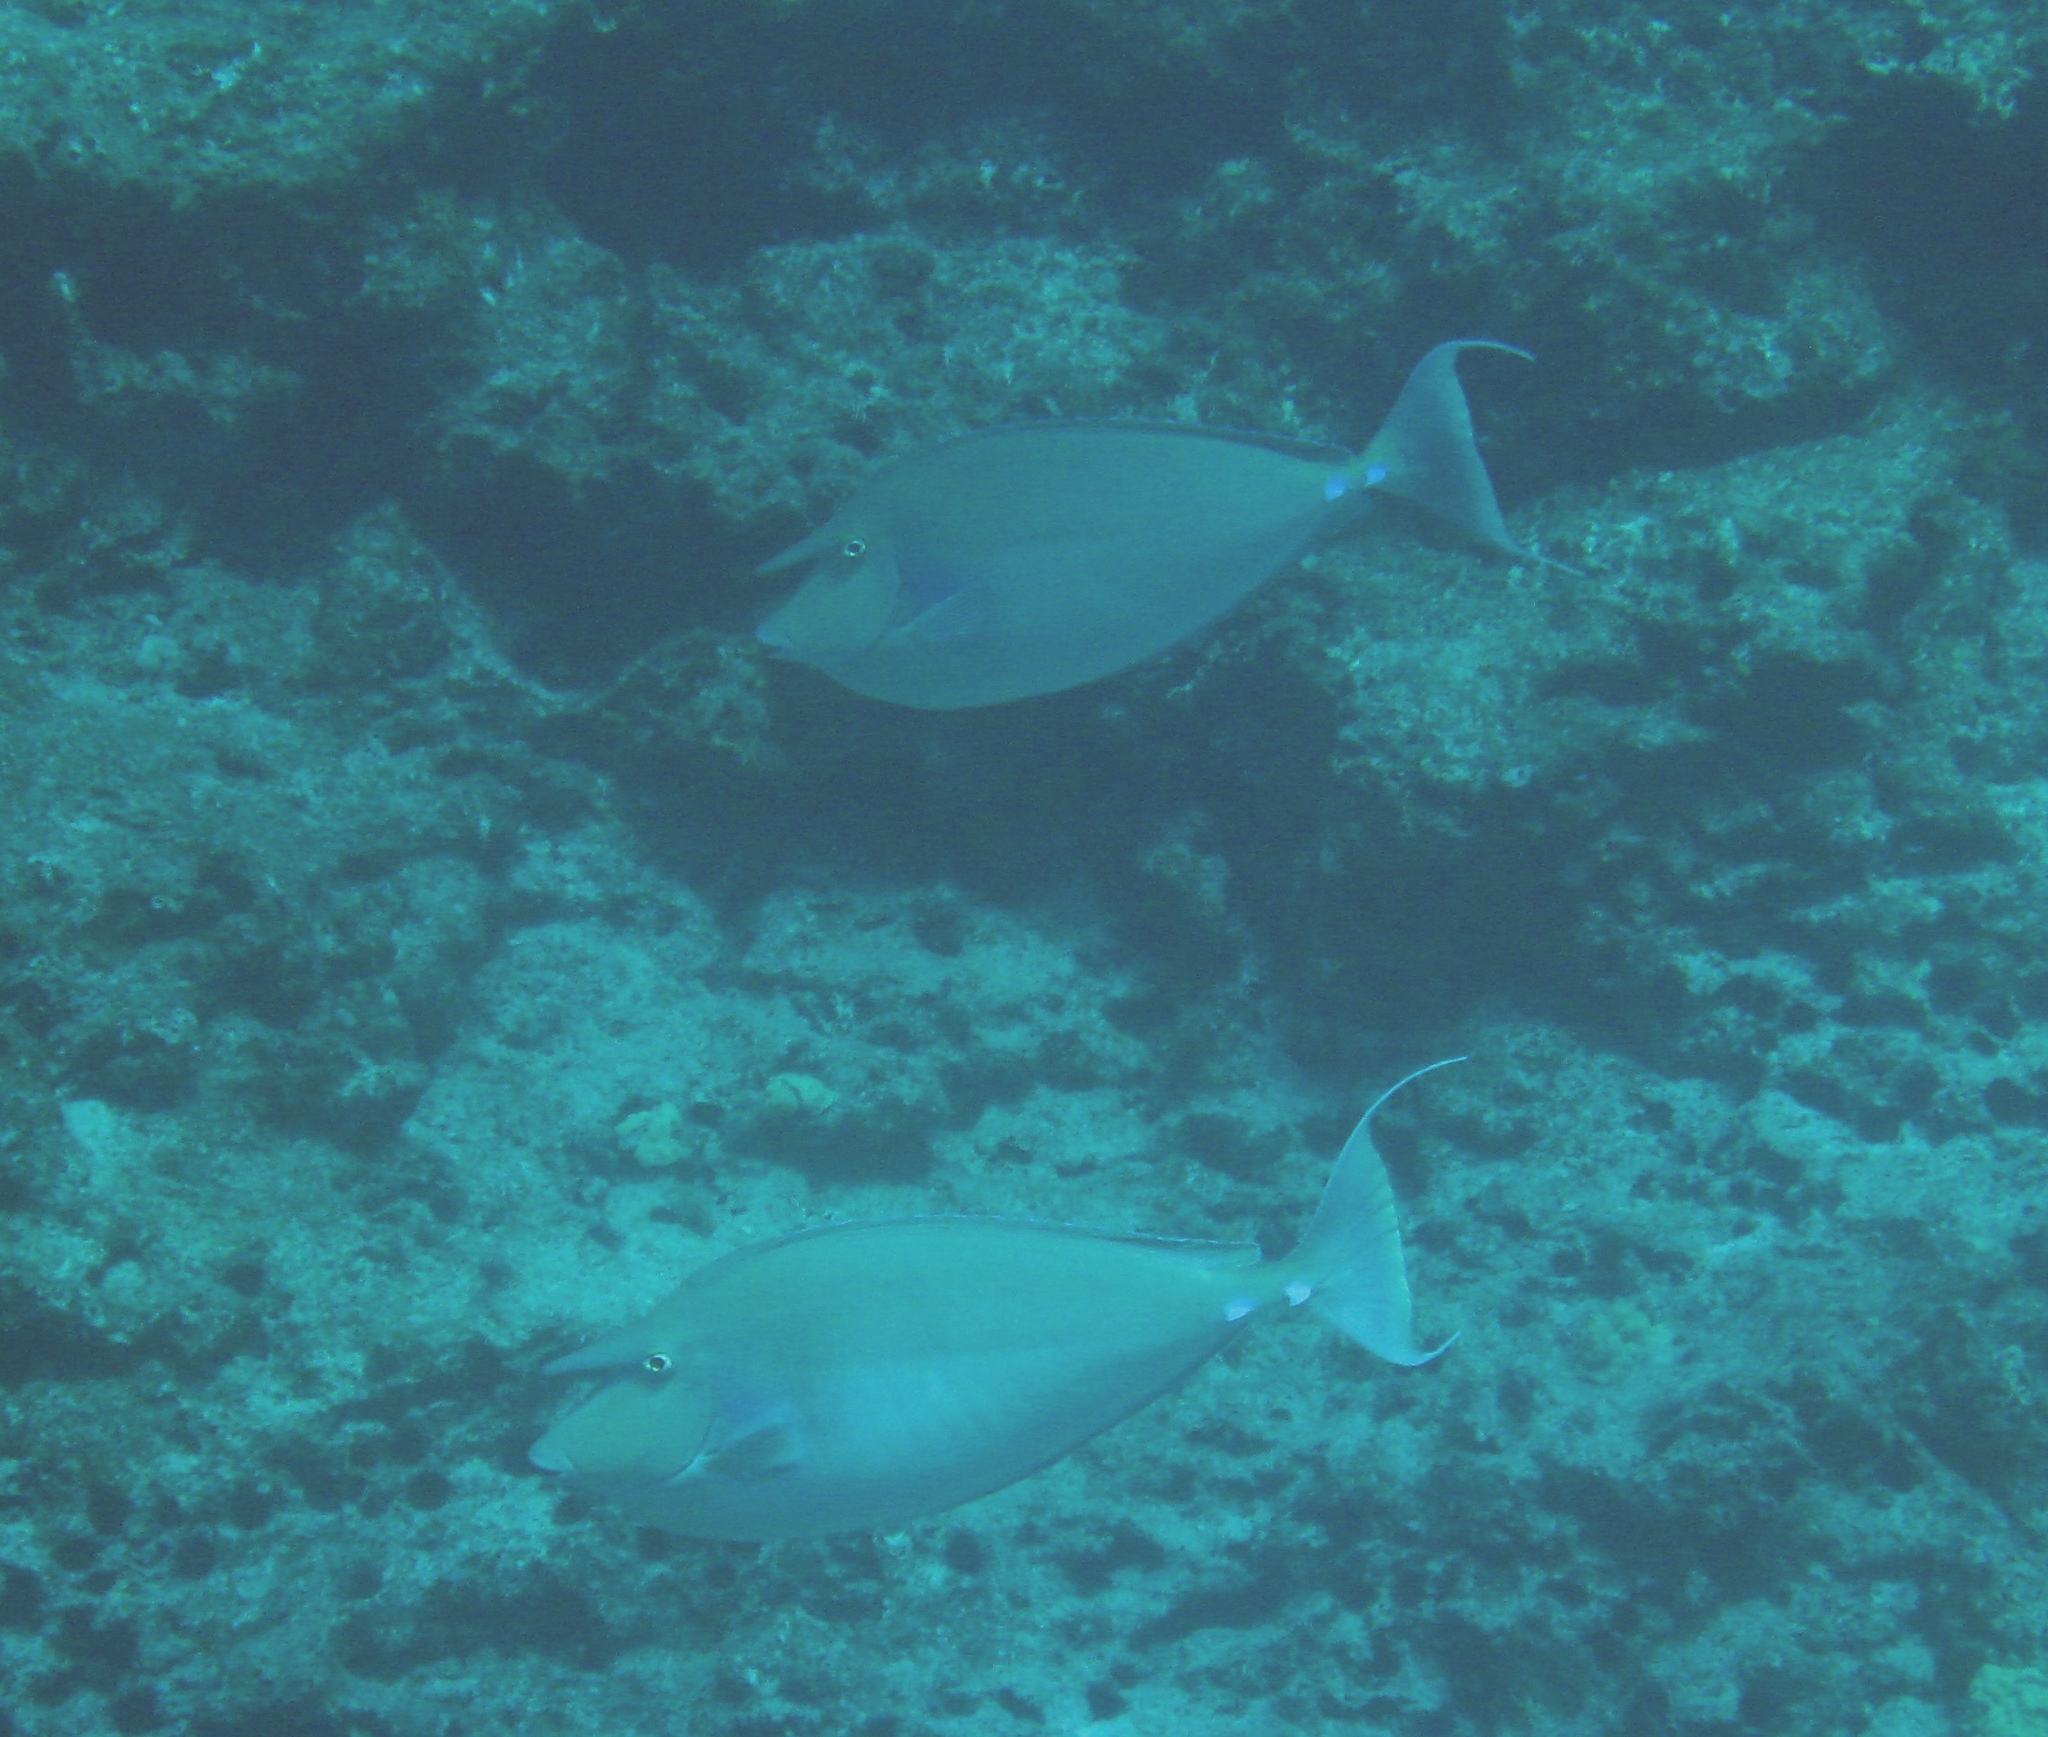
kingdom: Animalia
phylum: Chordata
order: Perciformes
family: Acanthuridae
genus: Naso
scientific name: Naso unicornis
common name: Bluespine unicornfish
